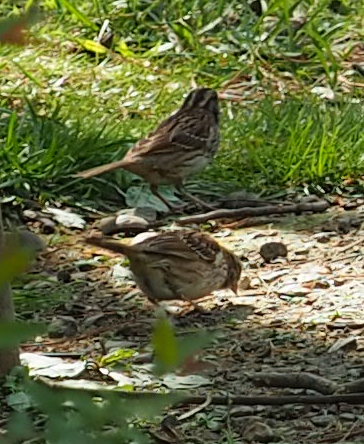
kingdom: Animalia
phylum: Chordata
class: Aves
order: Passeriformes
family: Passerellidae
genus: Zonotrichia
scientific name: Zonotrichia albicollis
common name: White-throated sparrow
